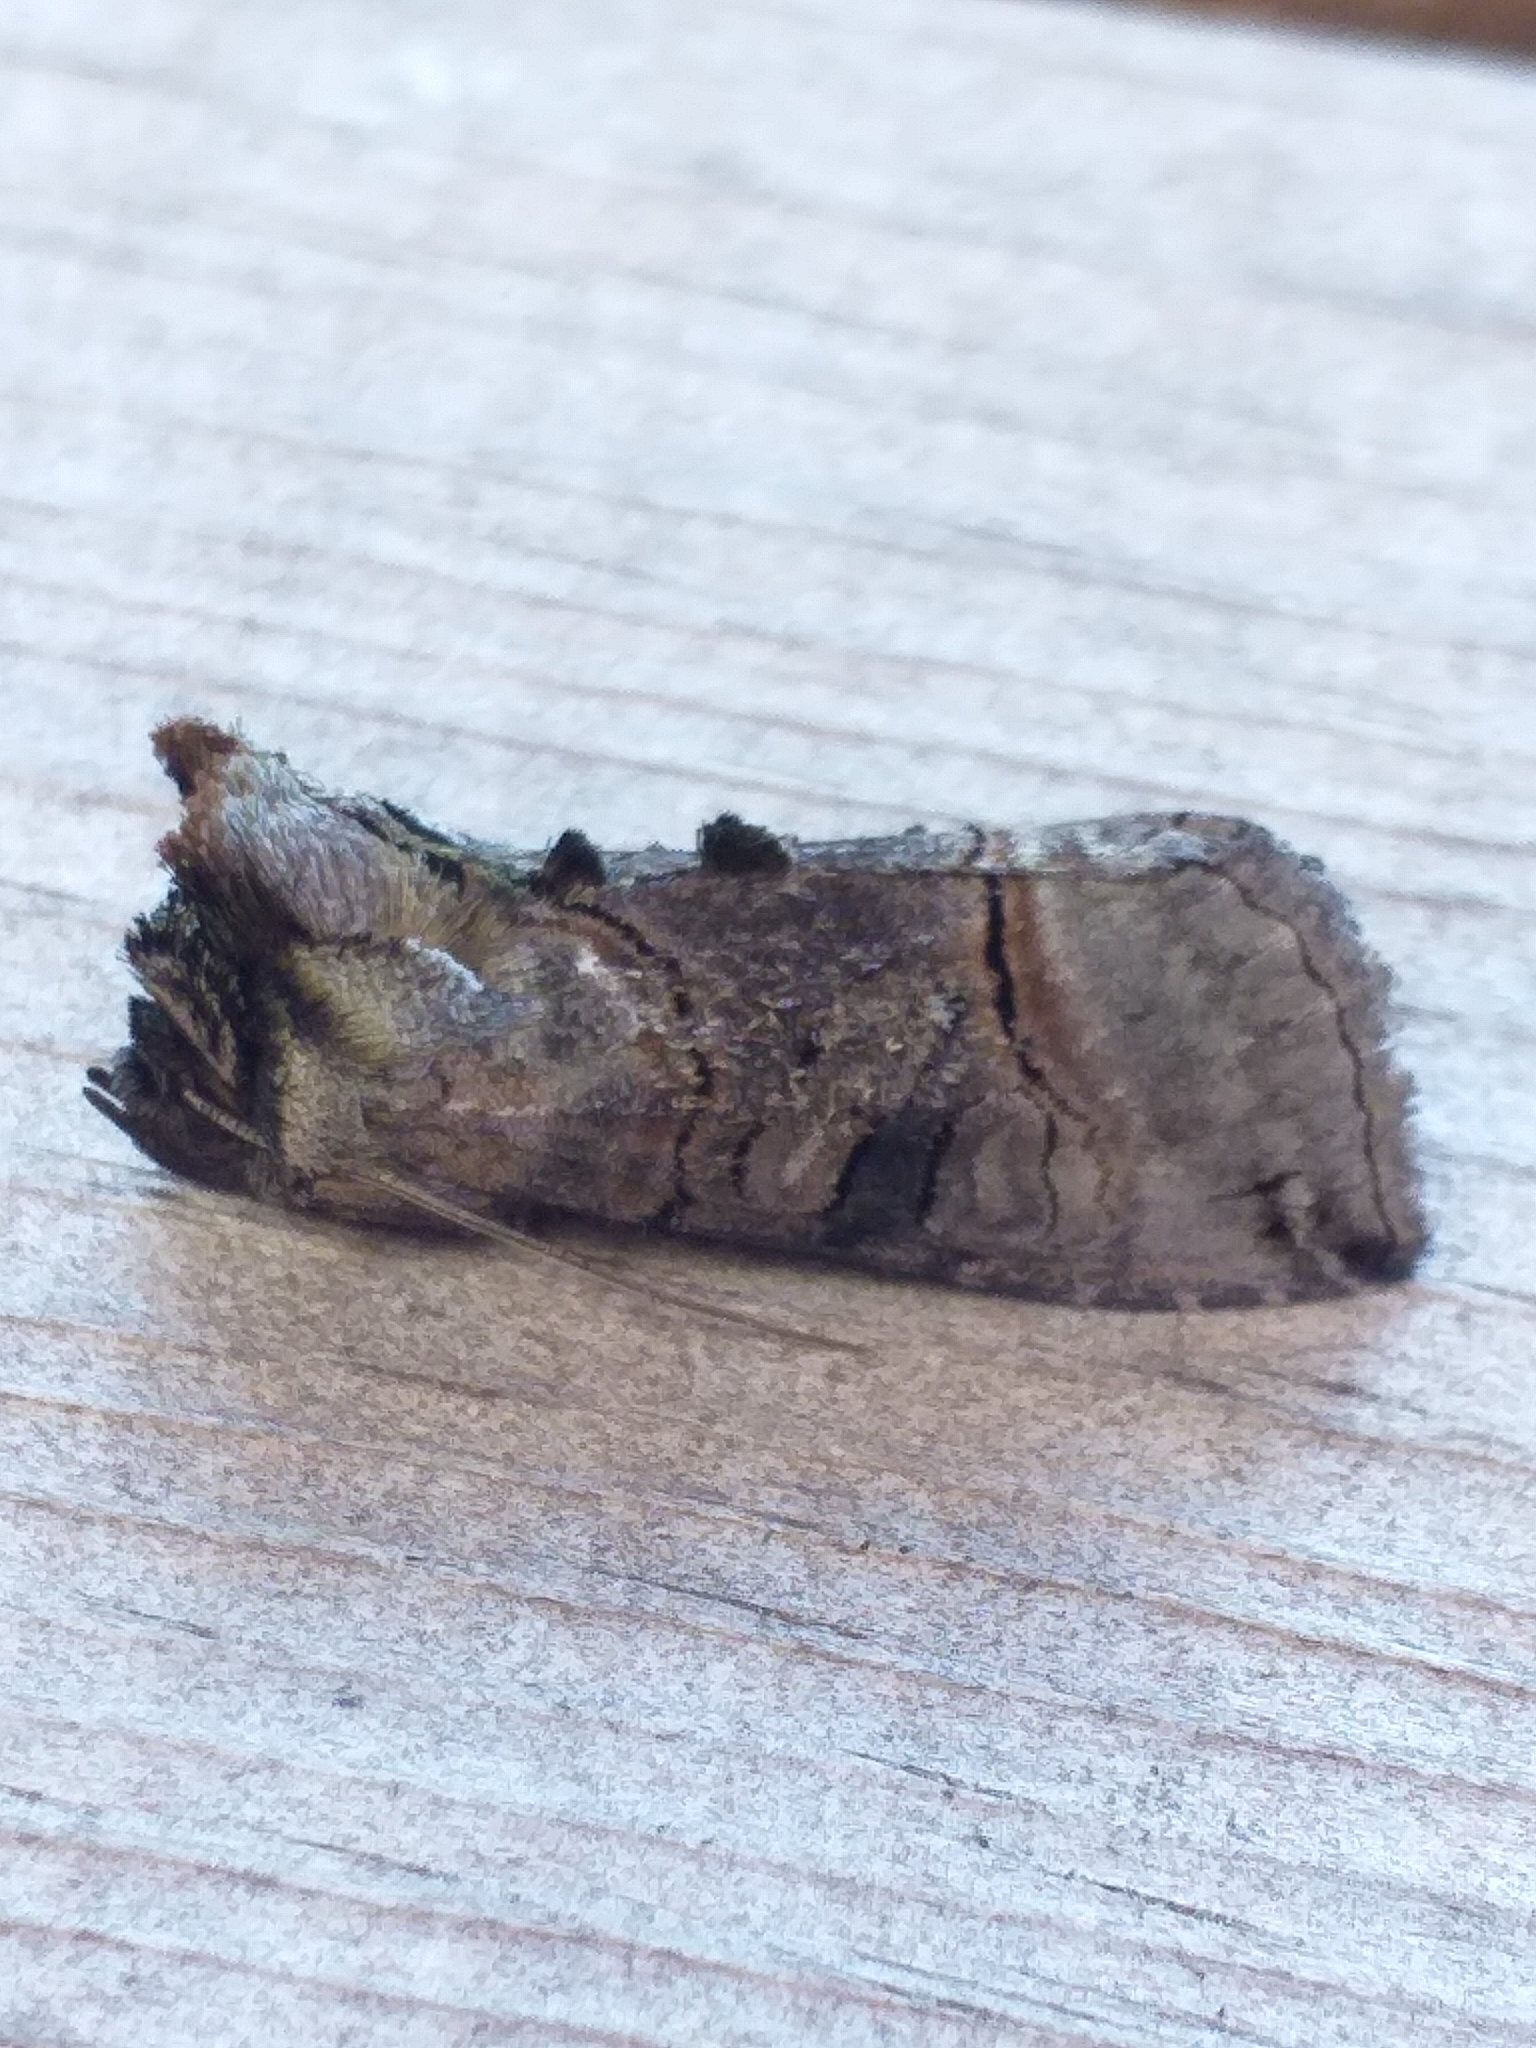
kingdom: Animalia
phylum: Arthropoda
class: Insecta
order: Lepidoptera
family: Noctuidae
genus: Abrostola
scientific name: Abrostola tripartita
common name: Spectacle
